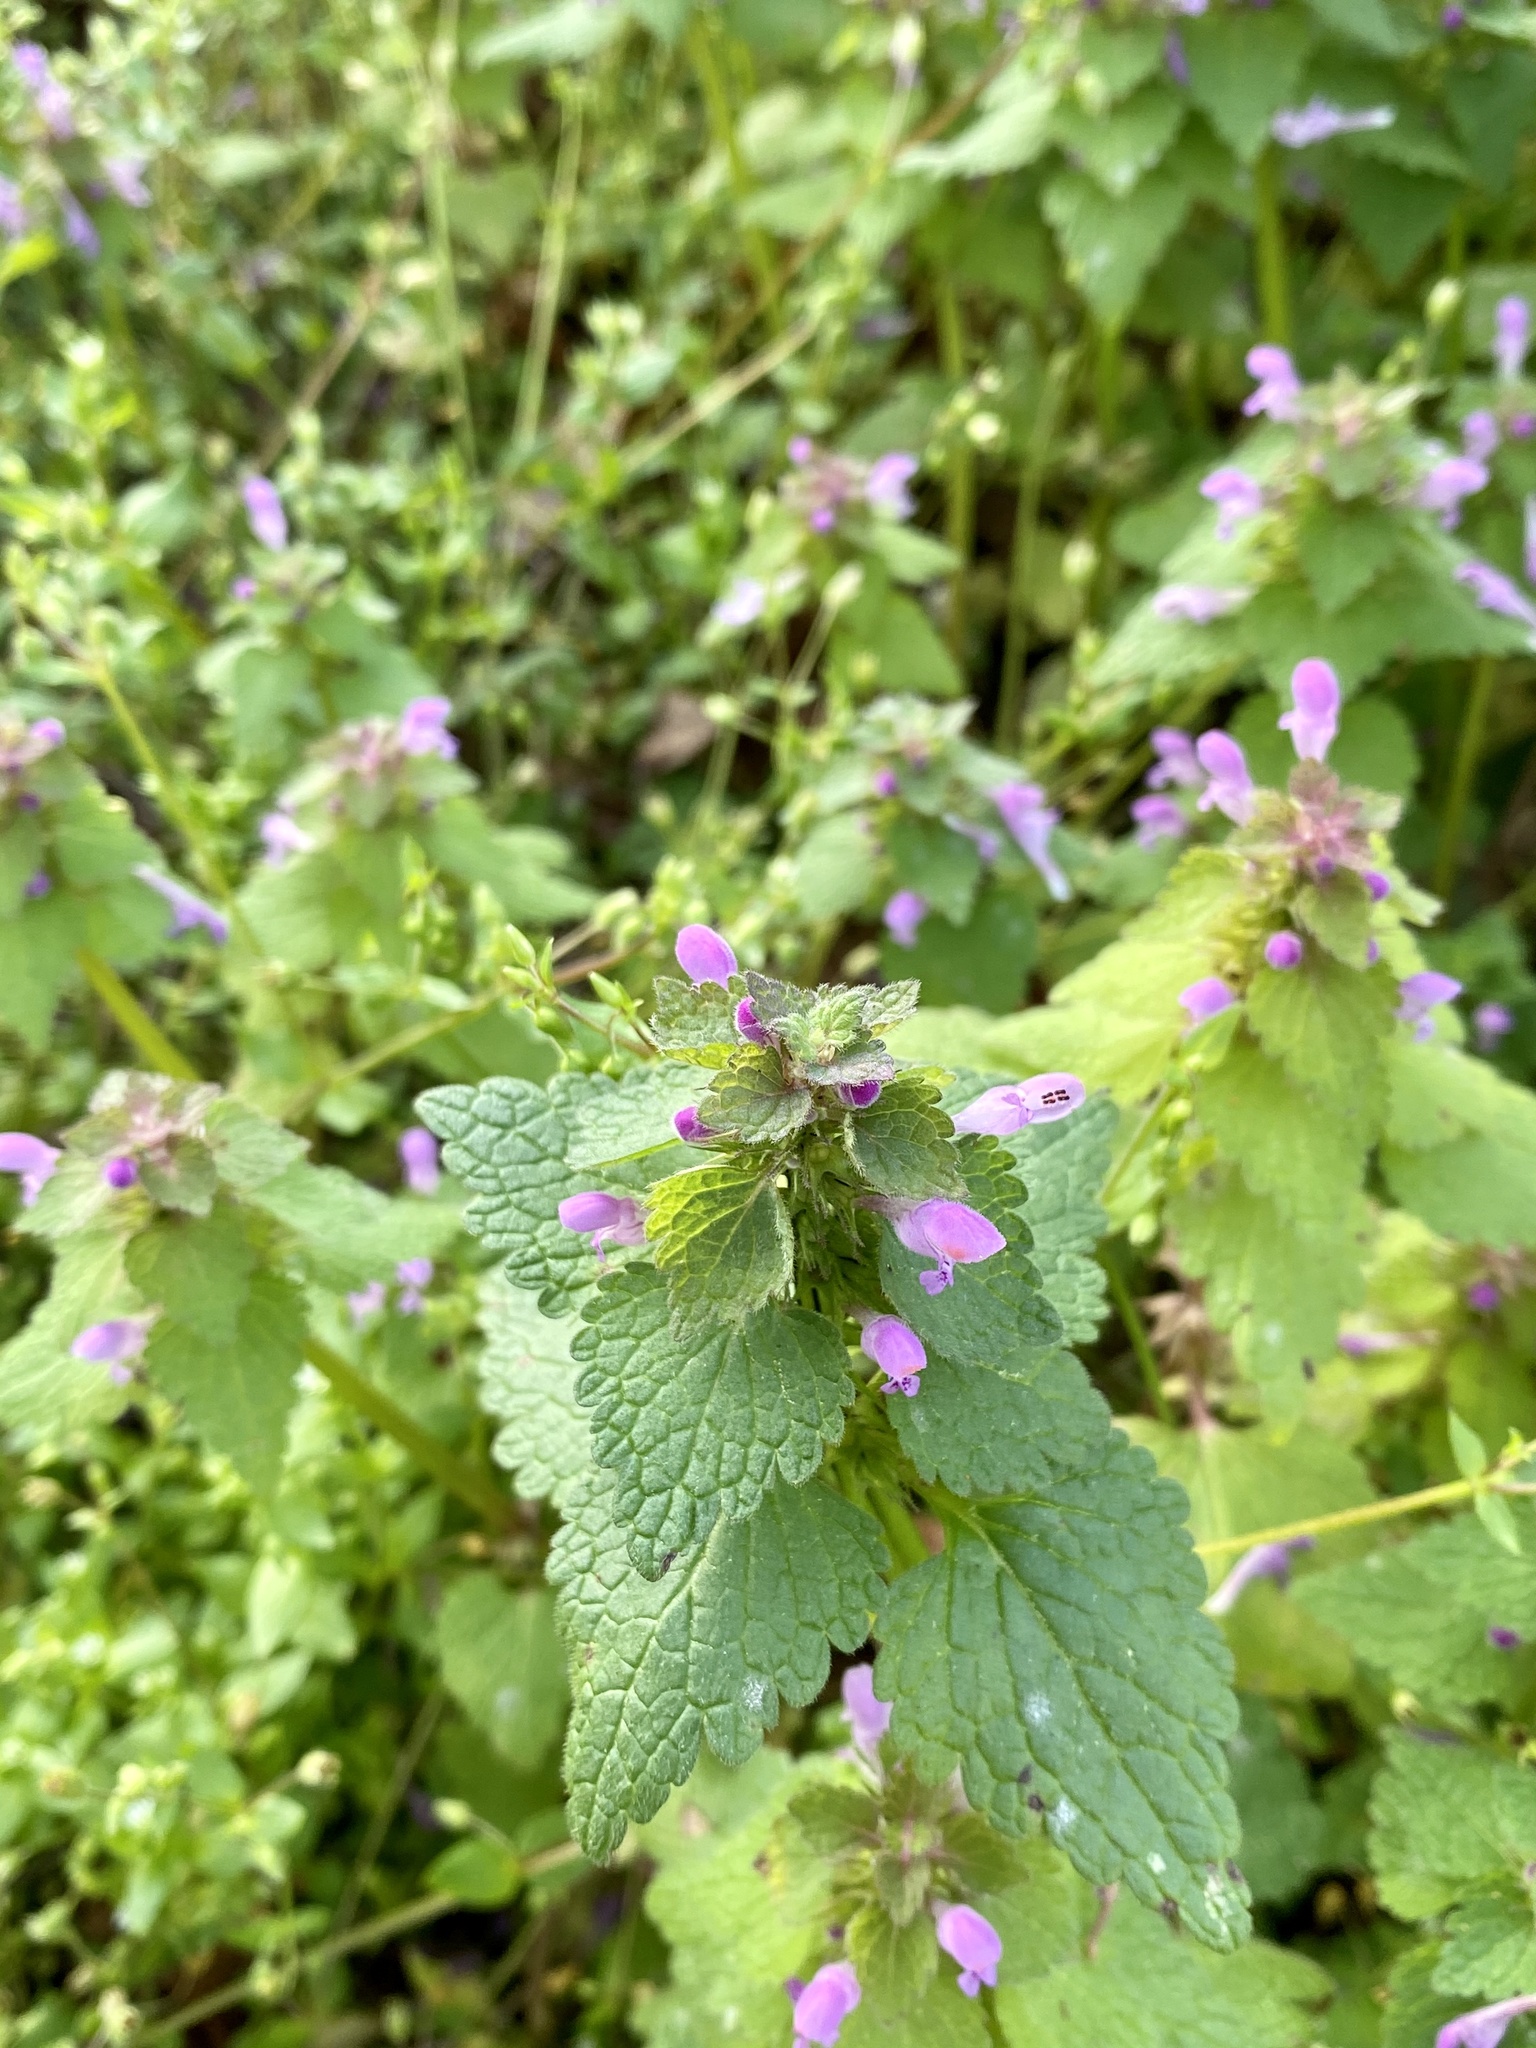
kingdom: Plantae
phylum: Tracheophyta
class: Magnoliopsida
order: Lamiales
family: Lamiaceae
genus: Lamium
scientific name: Lamium purpureum
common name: Red dead-nettle
